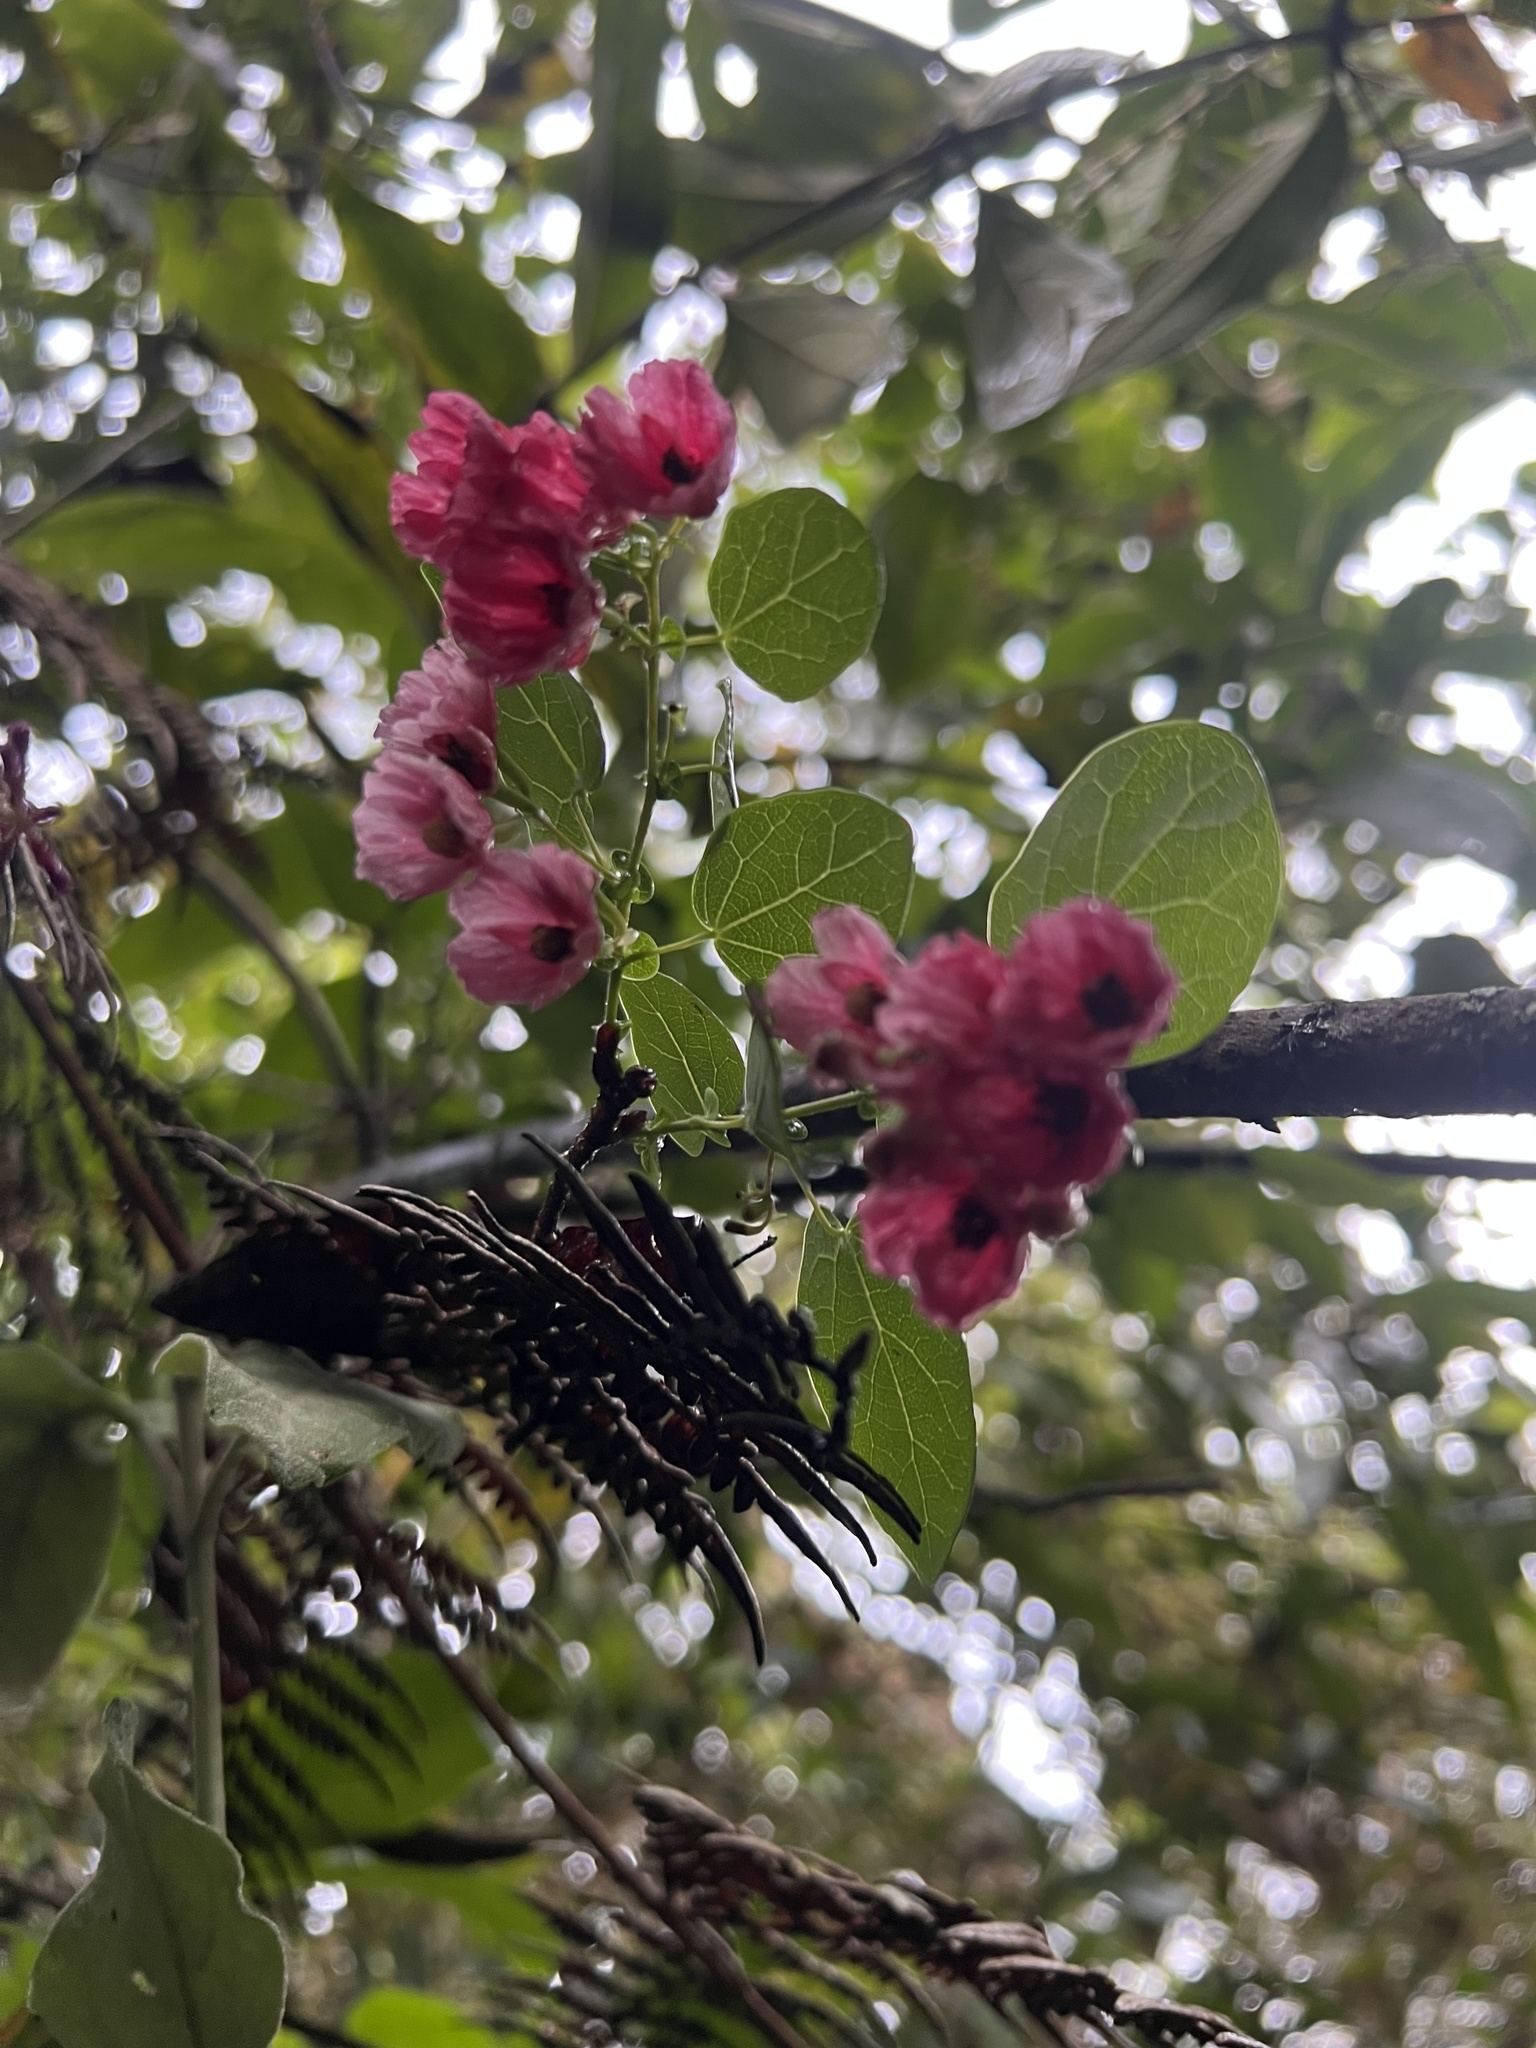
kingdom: Plantae
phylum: Tracheophyta
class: Magnoliopsida
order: Oxalidales
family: Elaeocarpaceae
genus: Vallea
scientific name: Vallea stipularis
